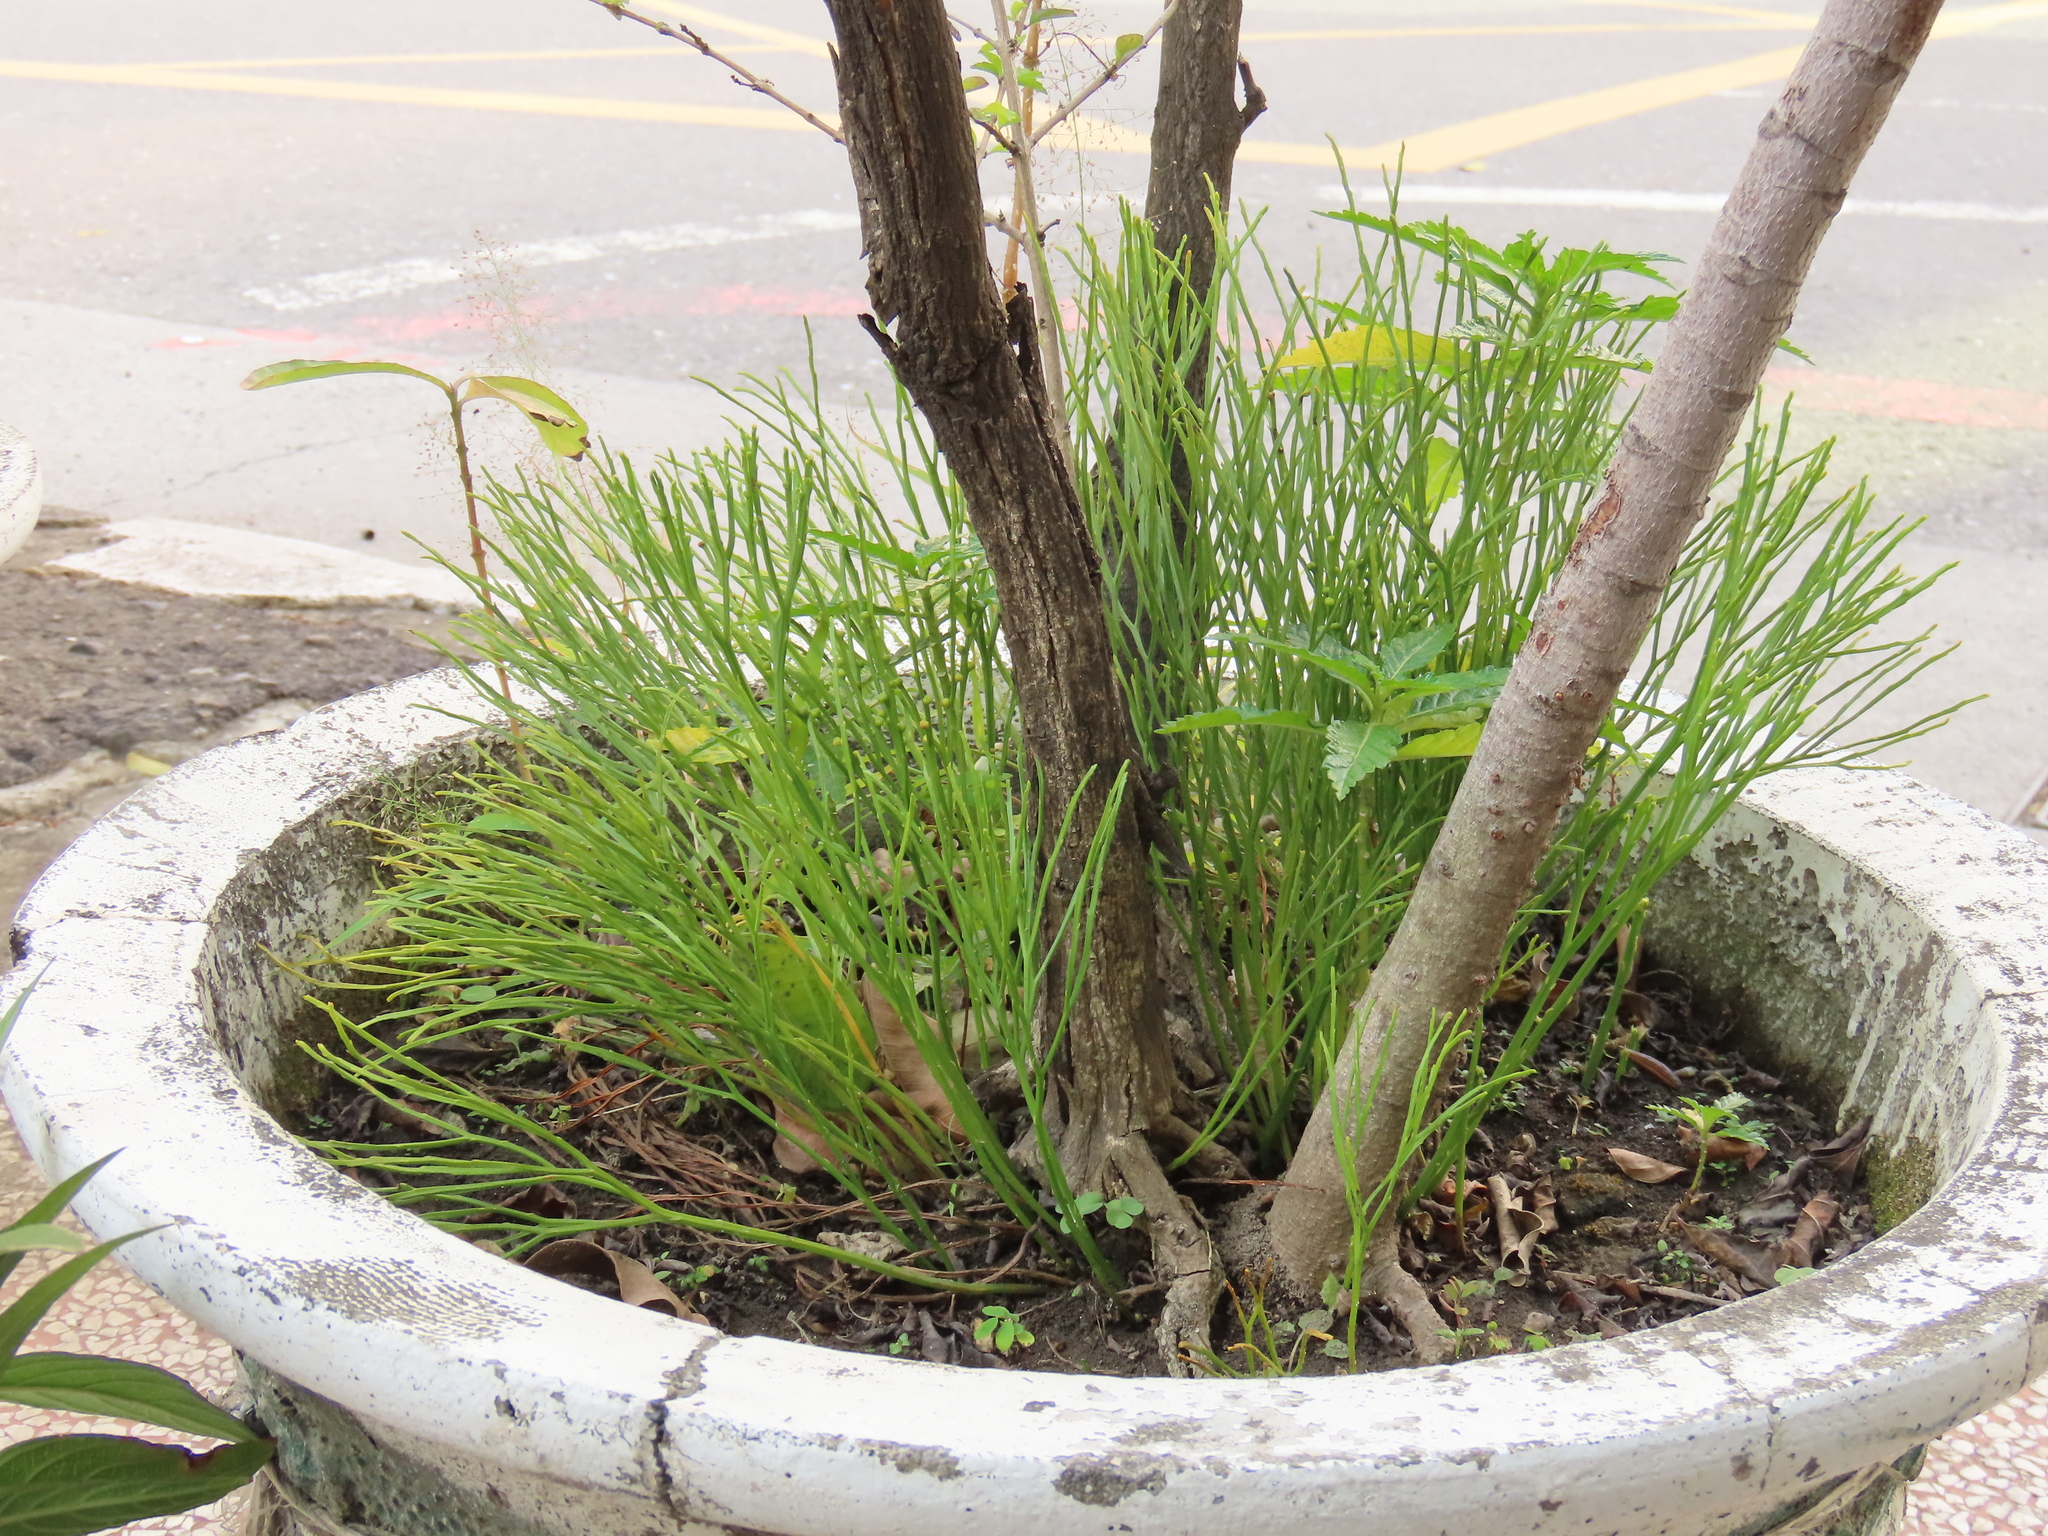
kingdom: Plantae
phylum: Tracheophyta
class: Polypodiopsida
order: Psilotales
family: Psilotaceae
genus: Psilotum
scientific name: Psilotum nudum
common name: Skeleton fork fern
